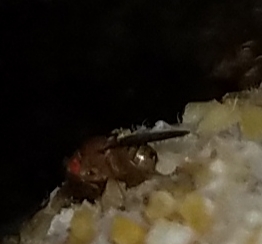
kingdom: Animalia
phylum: Arthropoda
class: Insecta
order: Diptera
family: Drosophilidae
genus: Drosophila
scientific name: Drosophila
